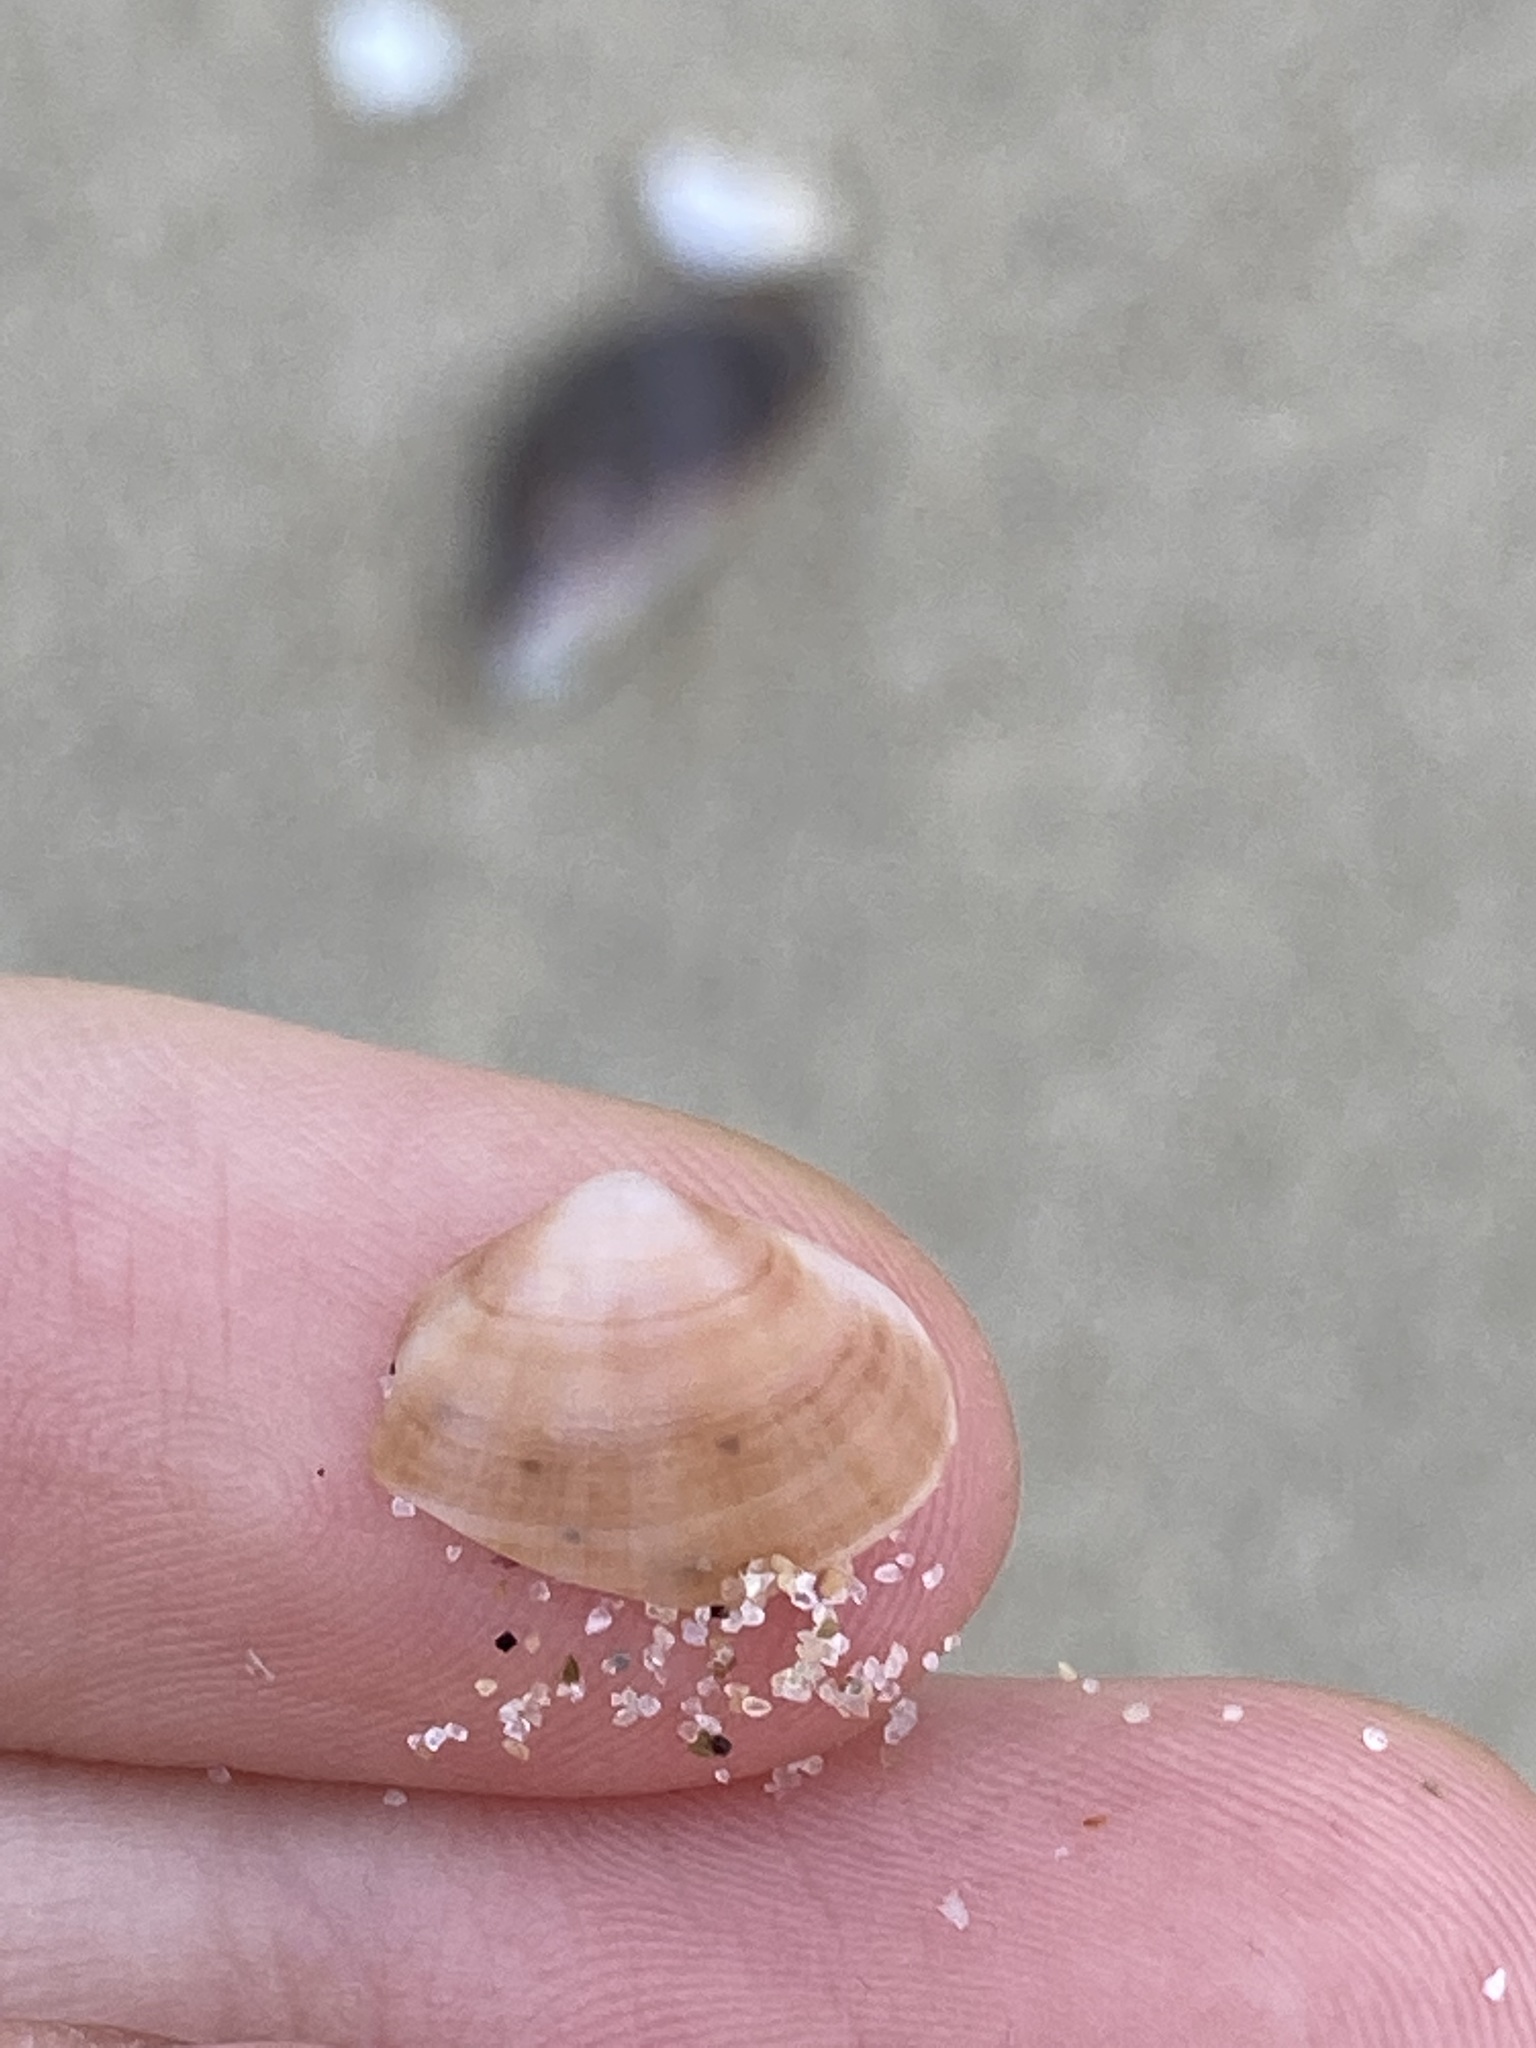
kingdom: Animalia
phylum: Mollusca
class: Bivalvia
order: Venerida
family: Mactridae
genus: Mactra
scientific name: Mactra pusilla
